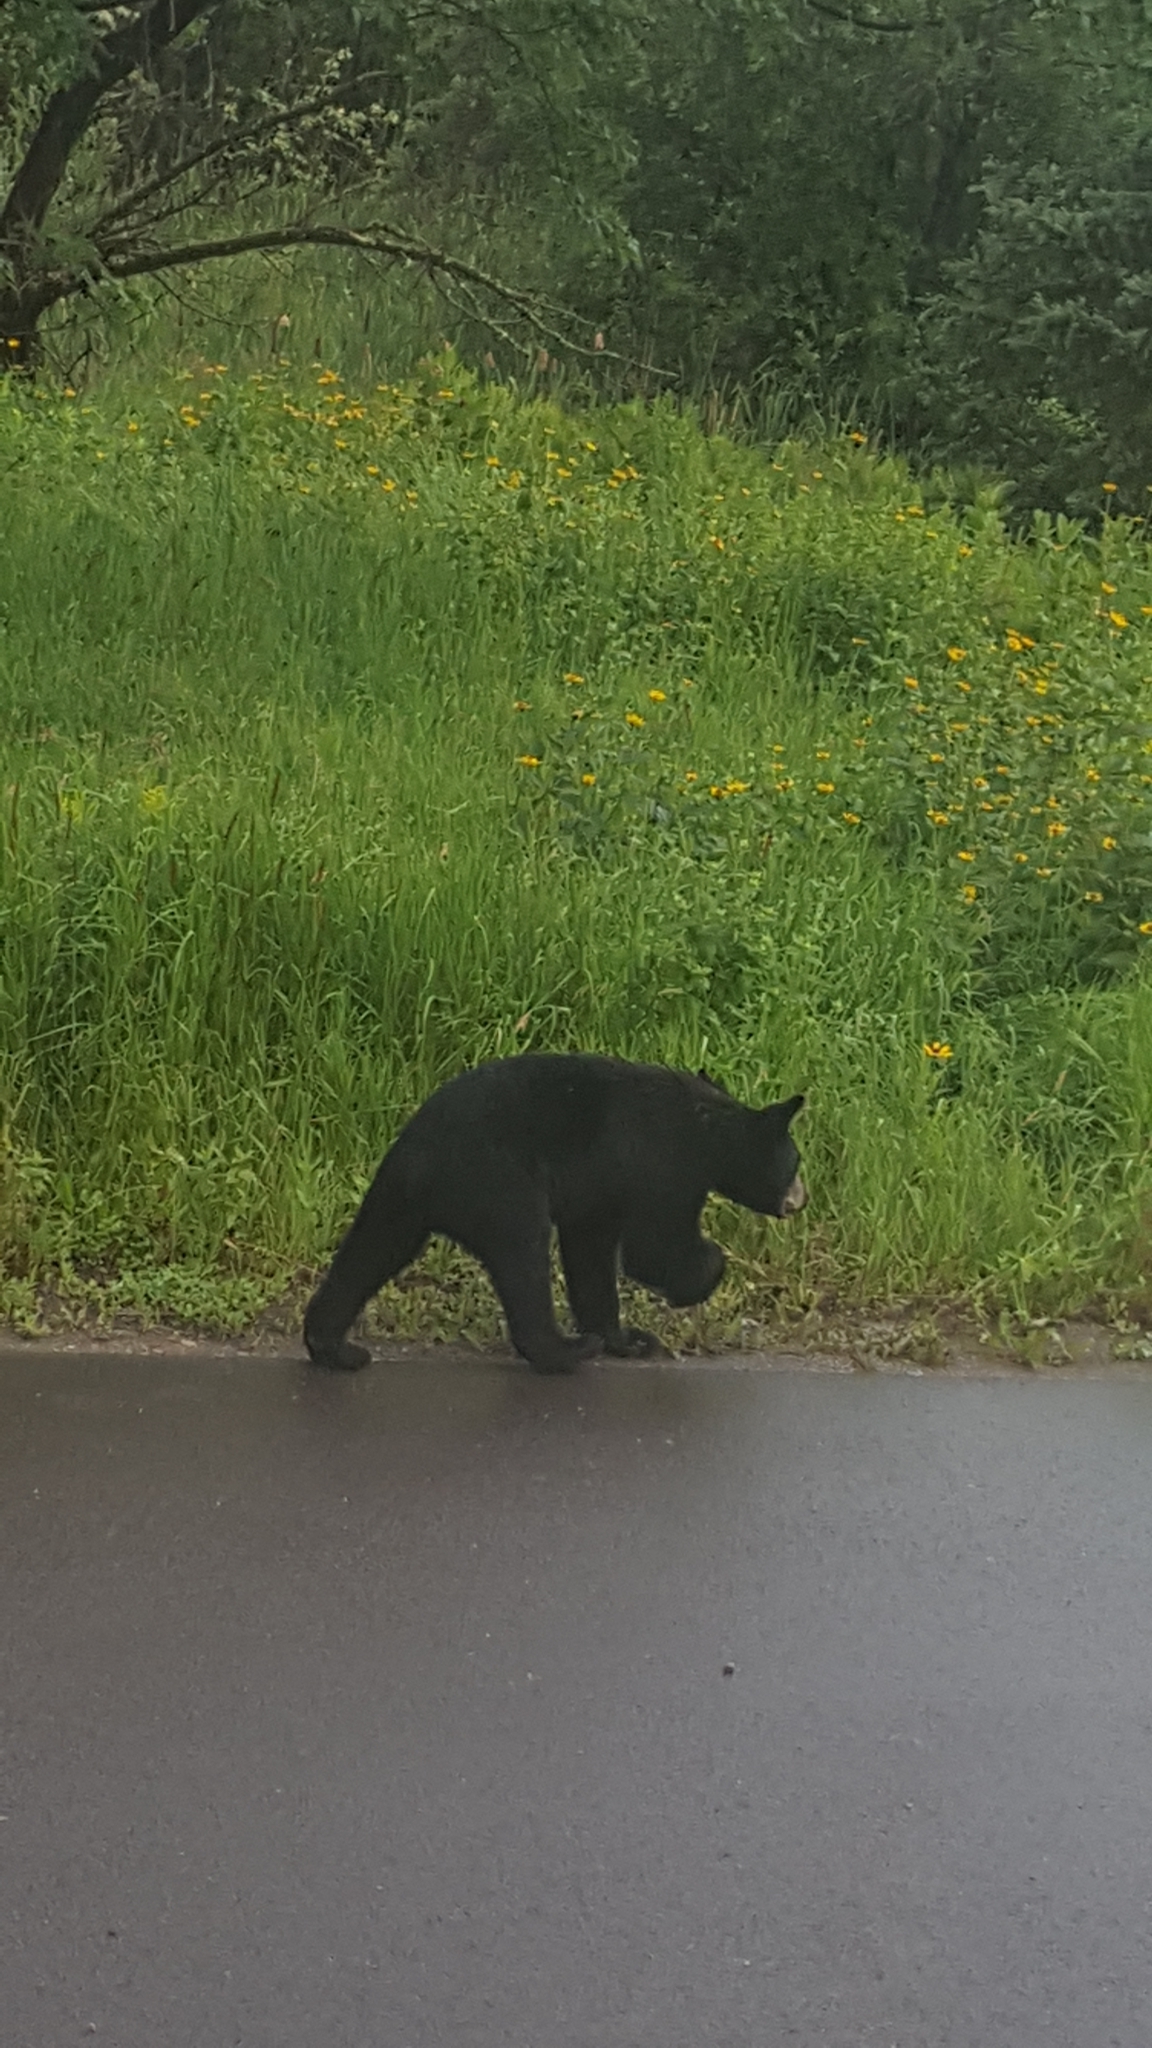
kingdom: Animalia
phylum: Chordata
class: Mammalia
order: Carnivora
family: Ursidae
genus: Ursus
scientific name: Ursus americanus
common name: American black bear
